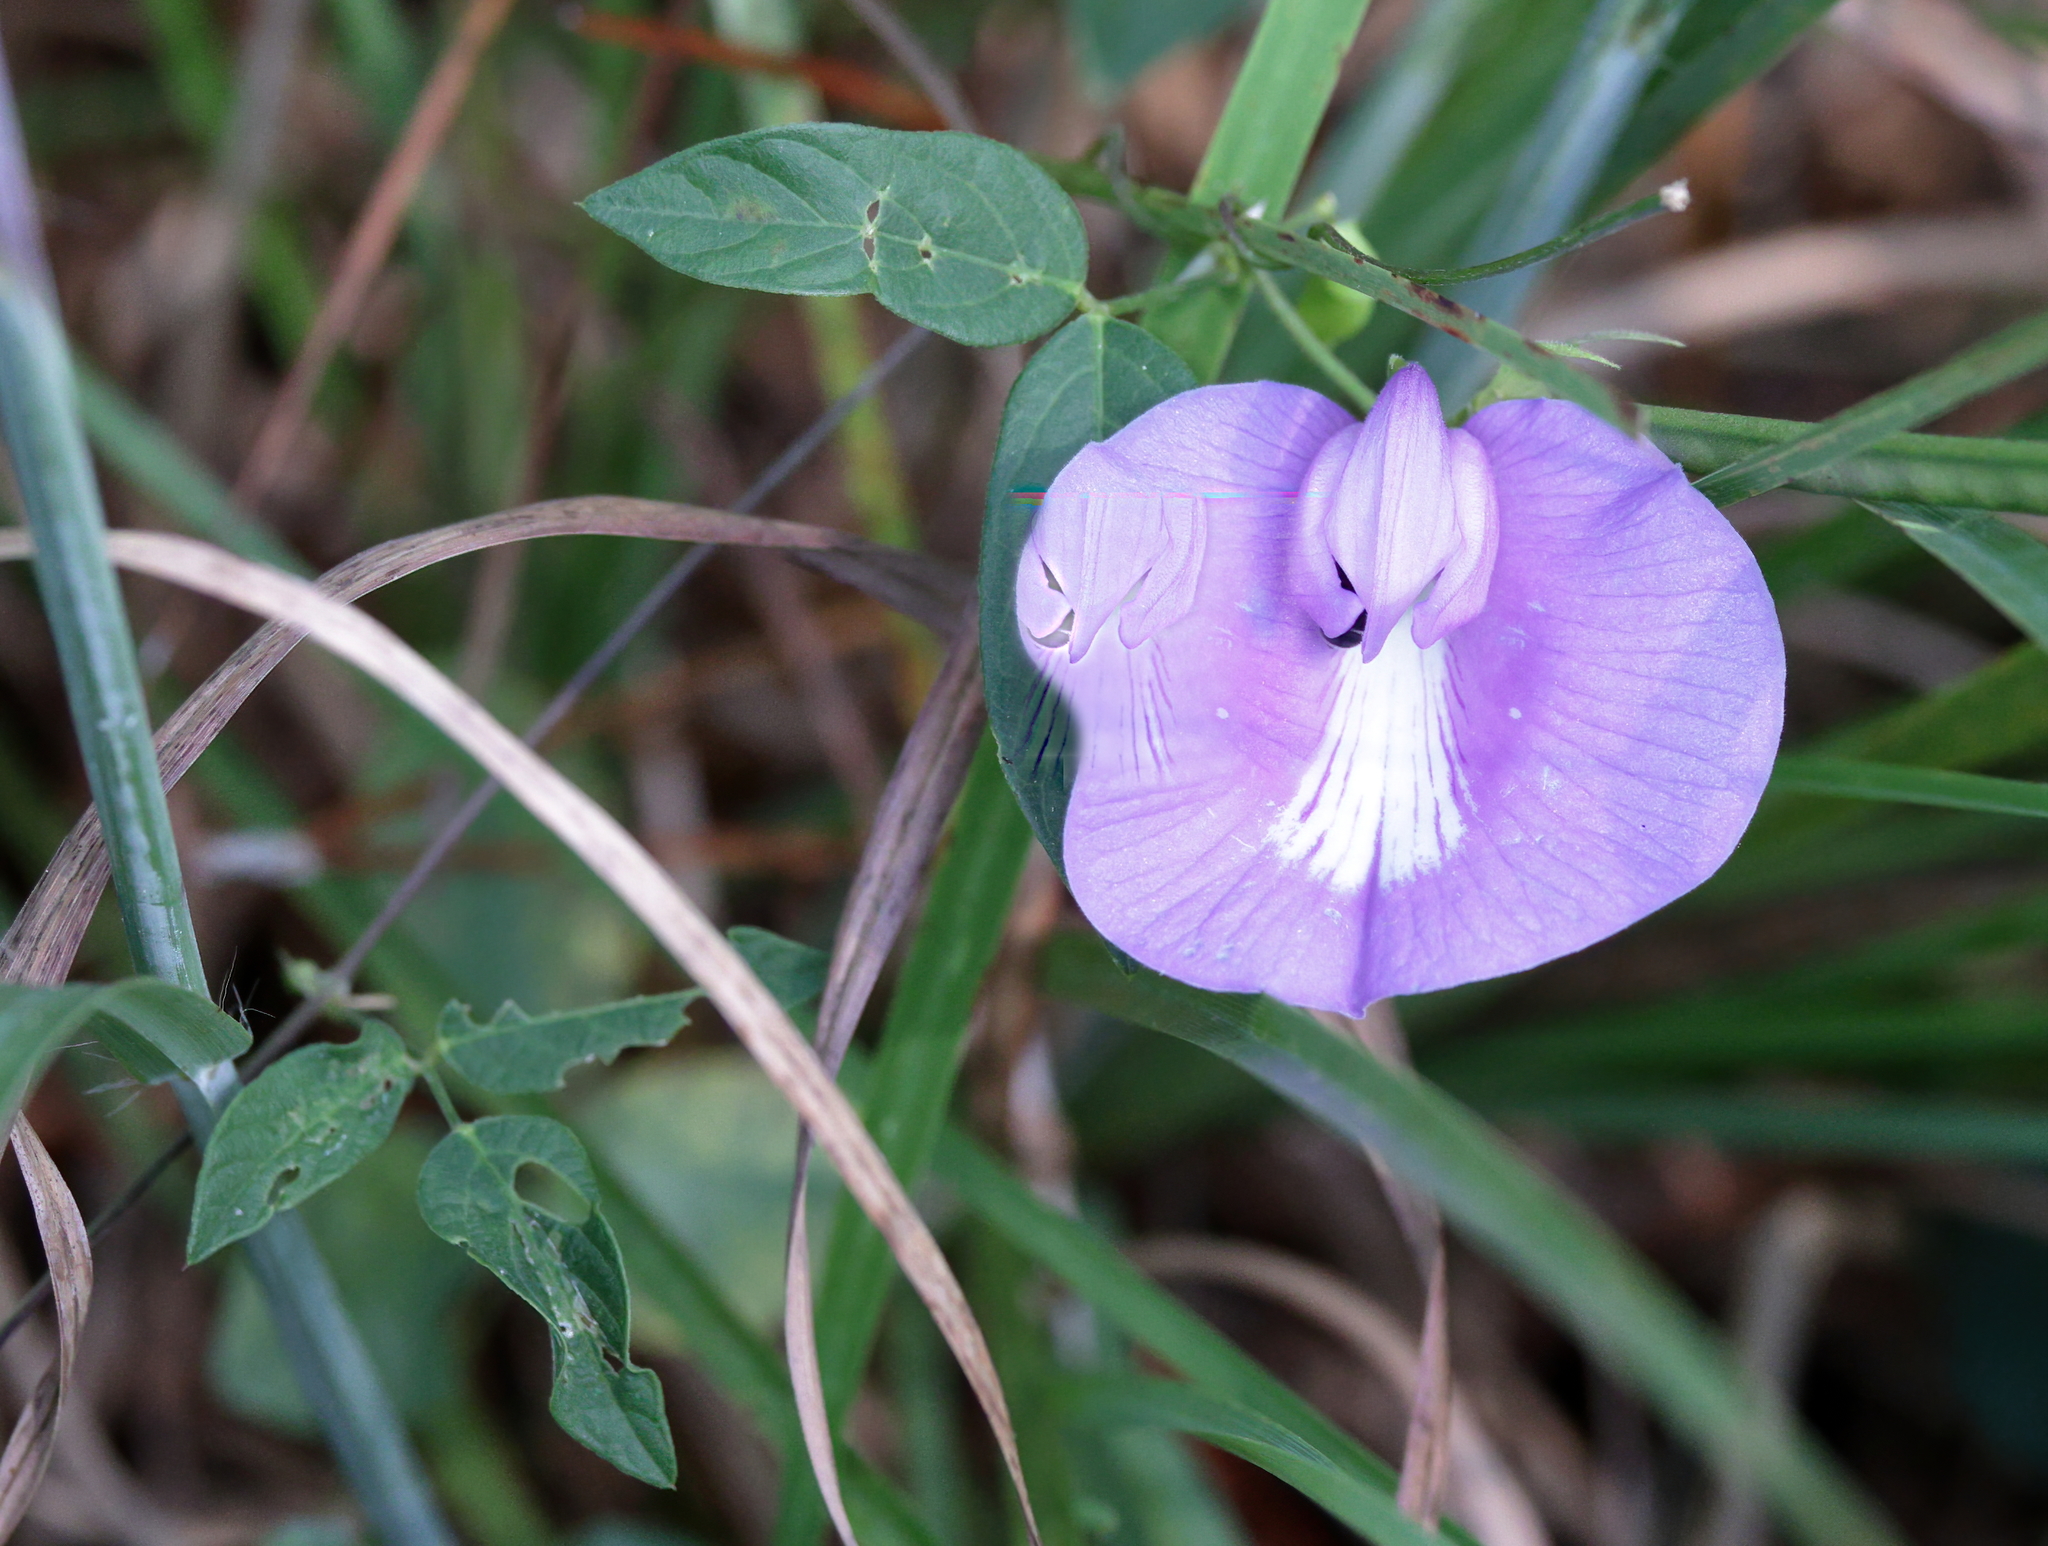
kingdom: Plantae
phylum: Tracheophyta
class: Magnoliopsida
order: Fabales
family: Fabaceae
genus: Centrosema
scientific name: Centrosema virginianum
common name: Butterfly-pea
